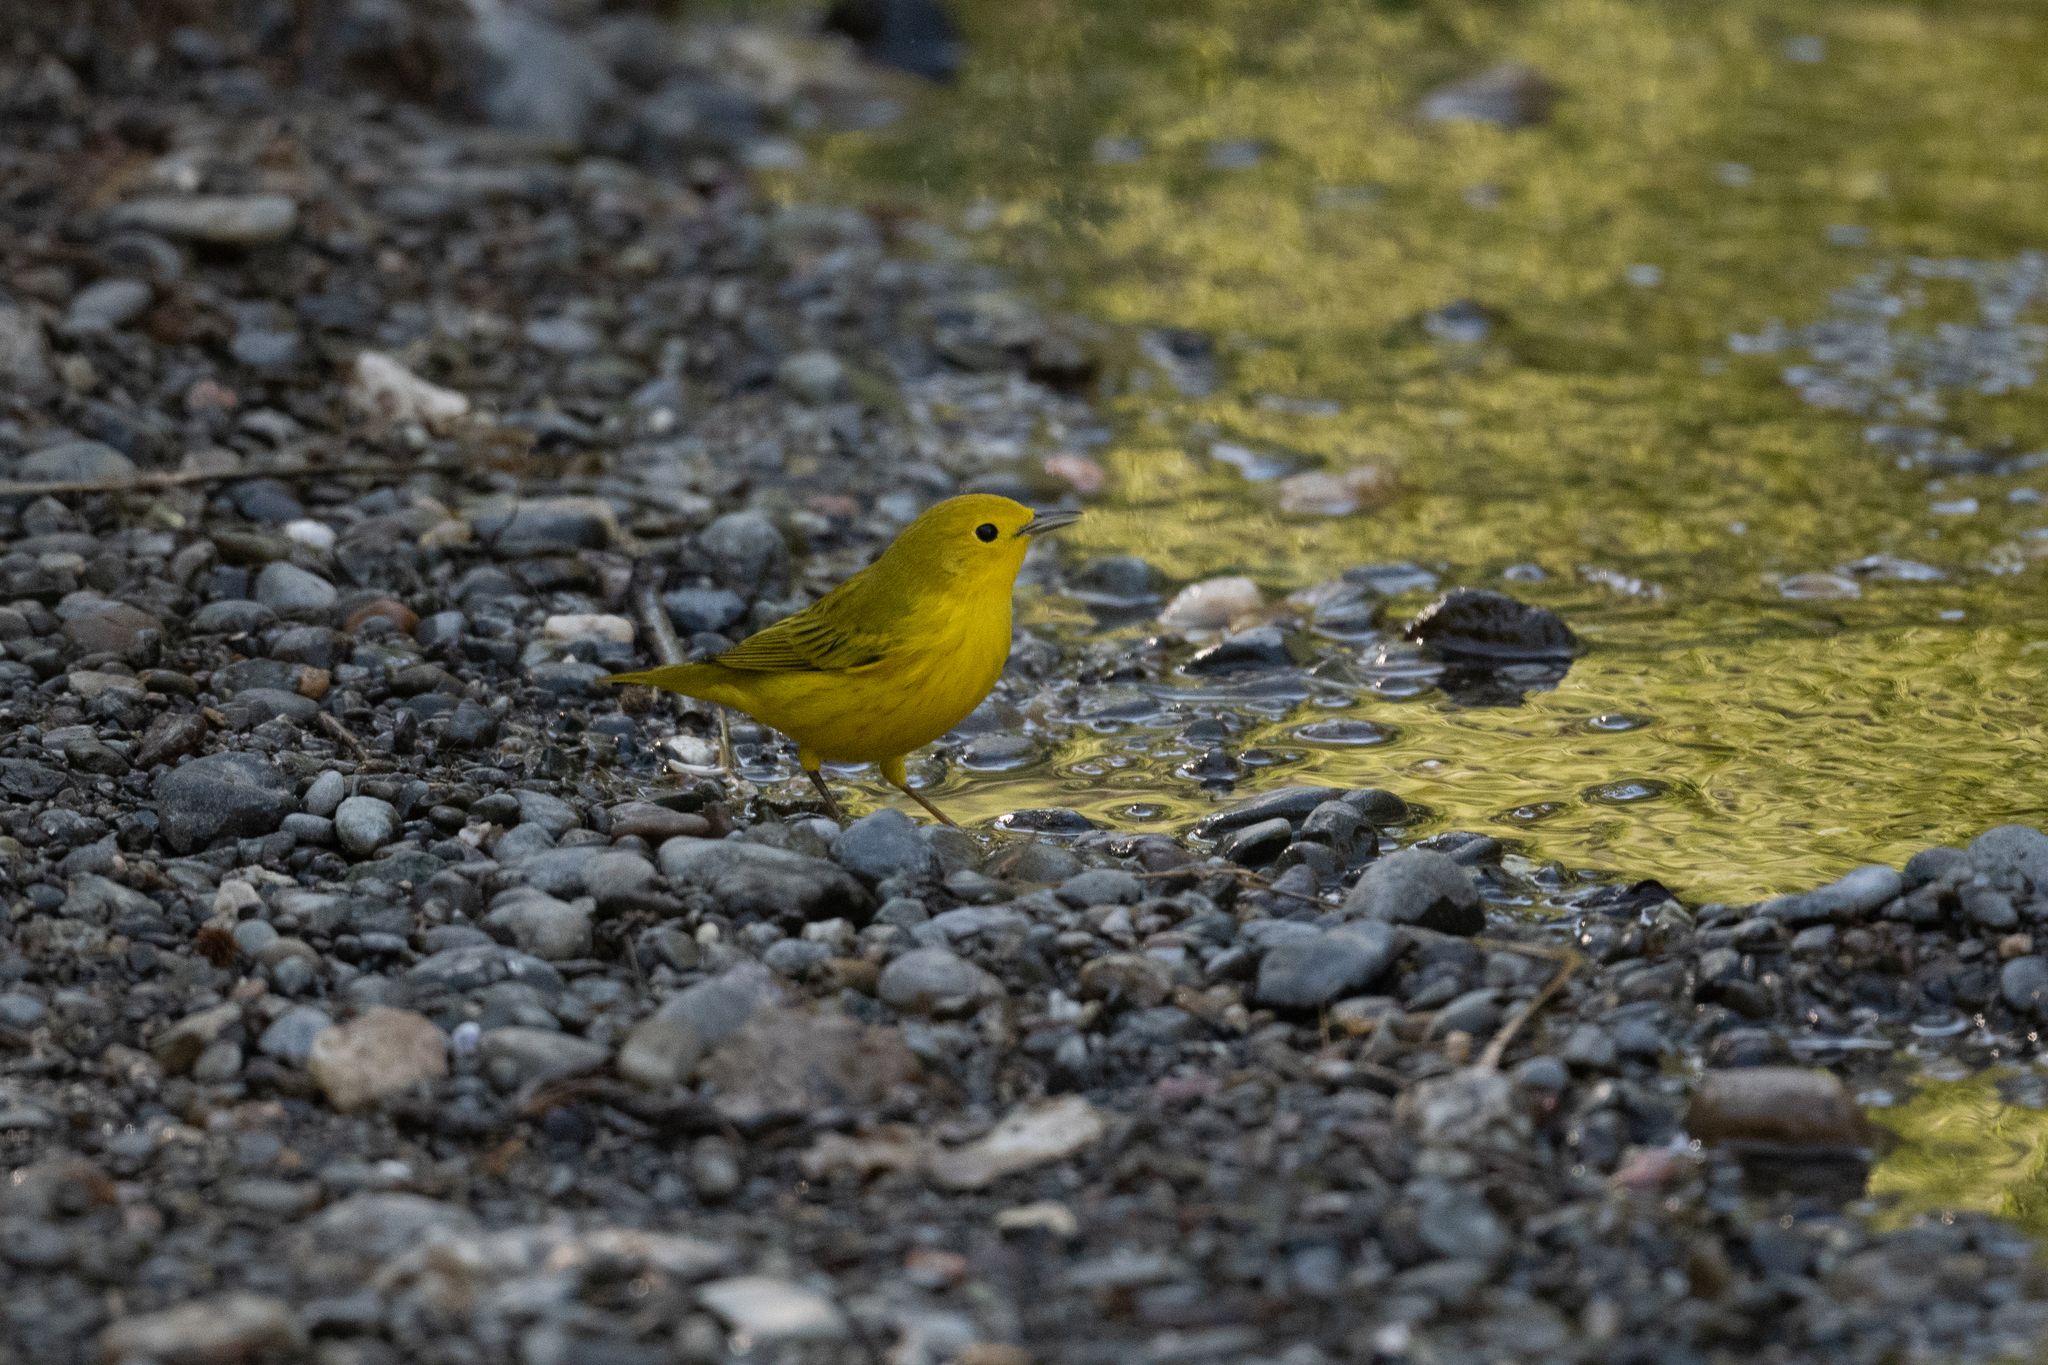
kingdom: Animalia
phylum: Chordata
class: Aves
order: Passeriformes
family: Parulidae
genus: Setophaga
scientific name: Setophaga petechia
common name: Yellow warbler
